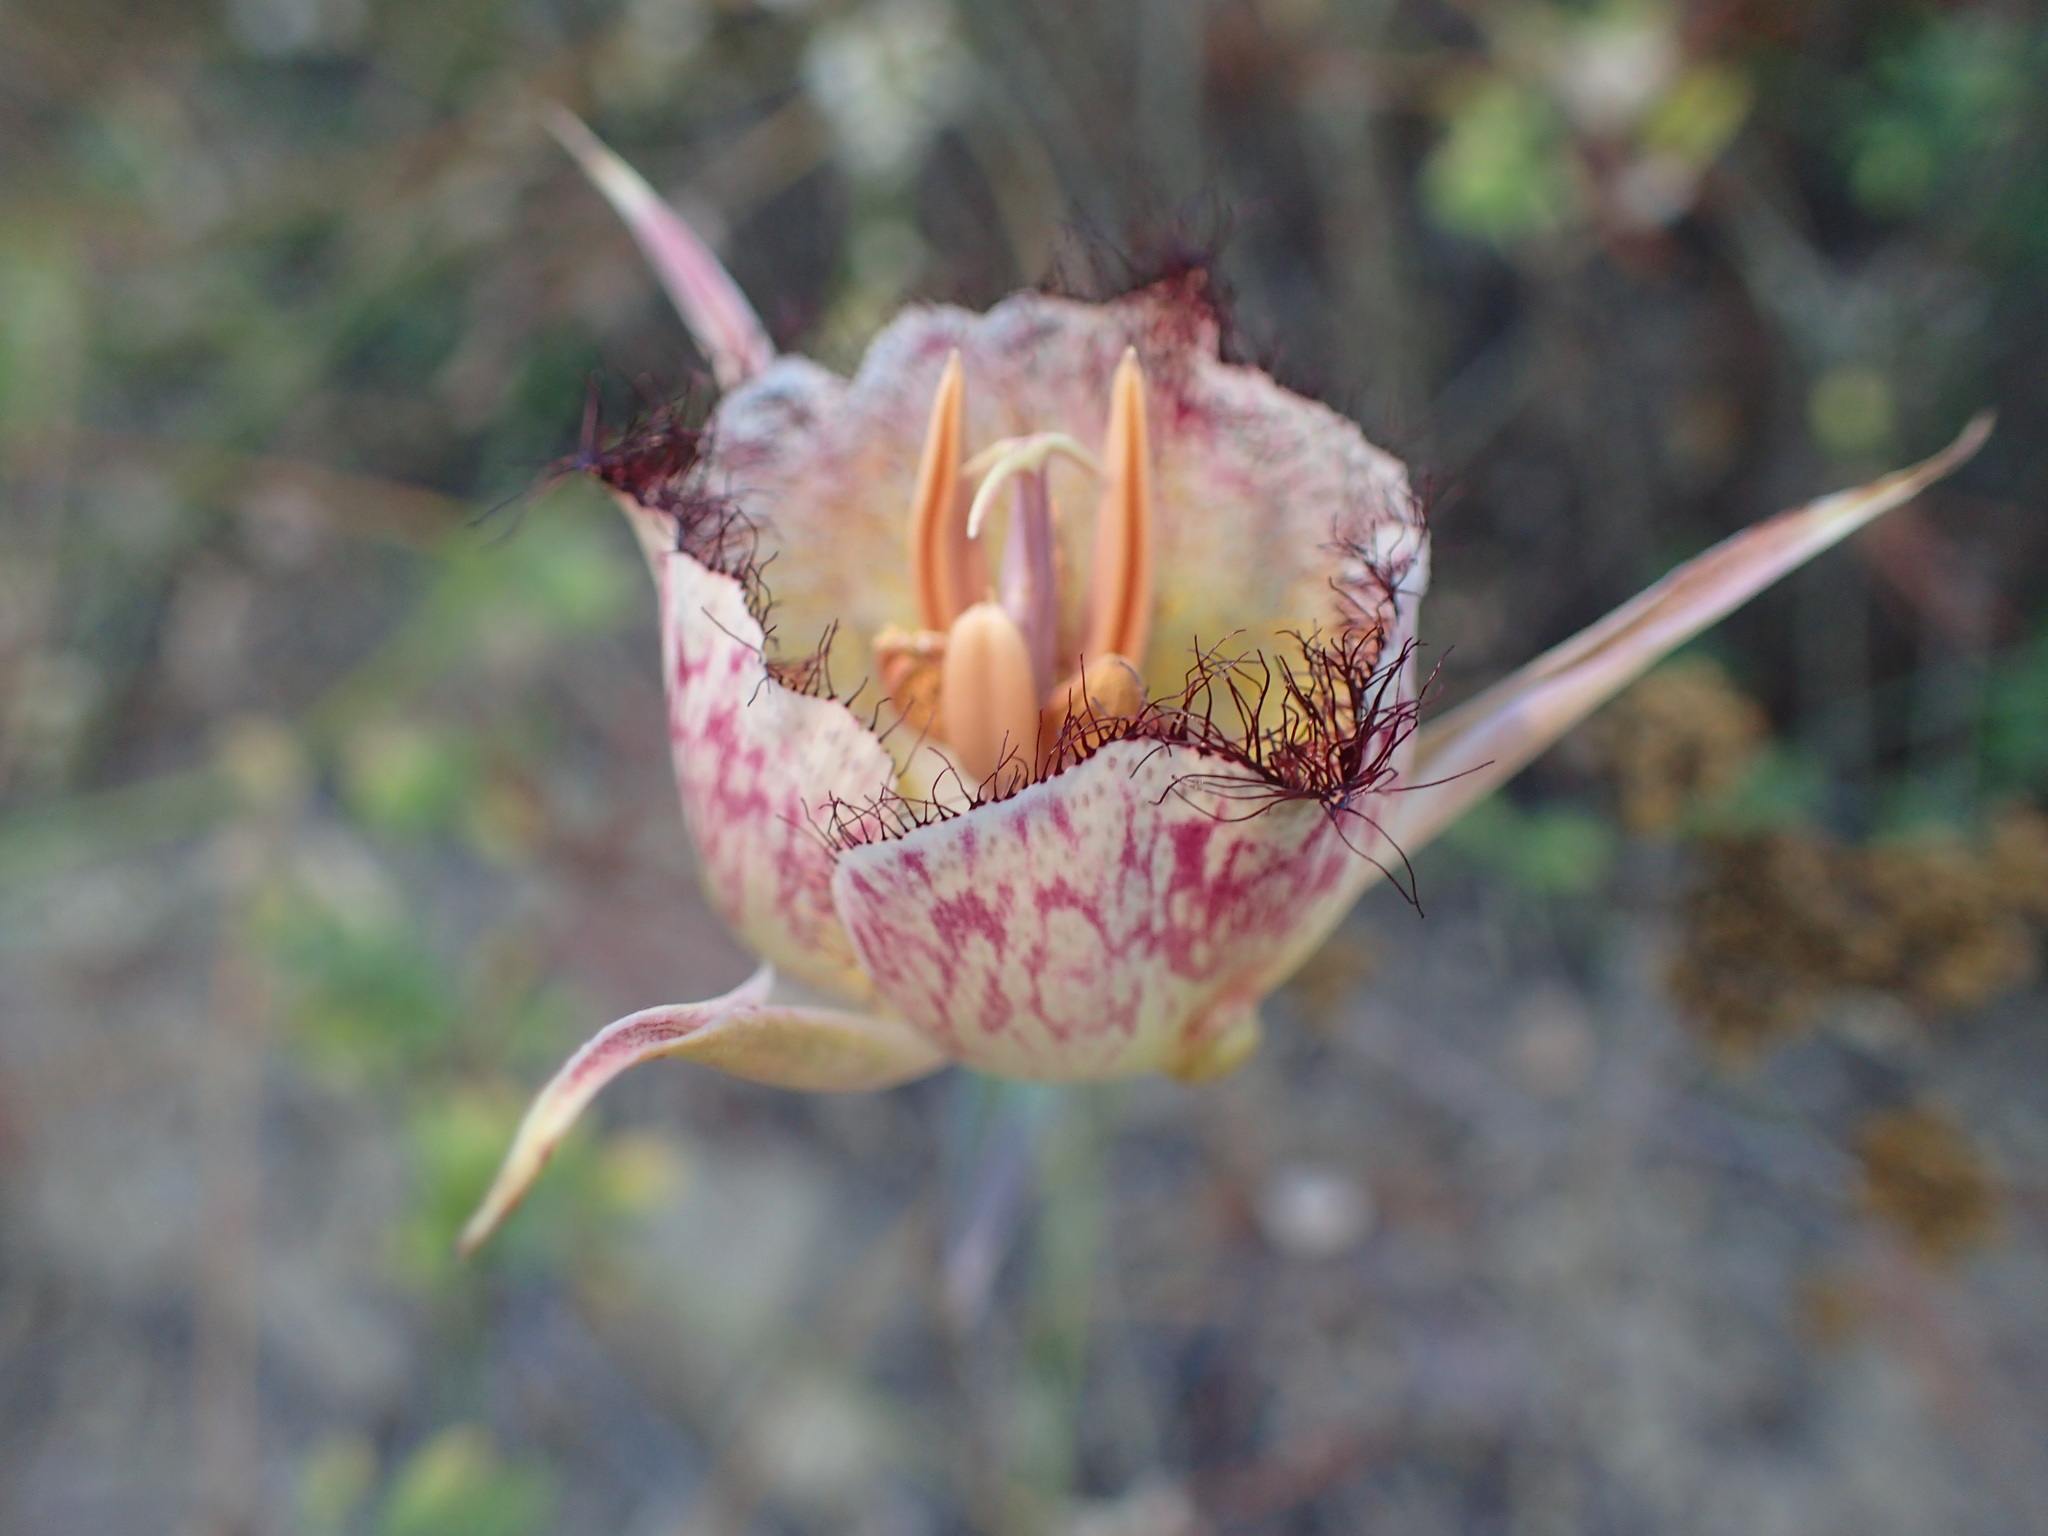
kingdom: Plantae
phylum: Tracheophyta
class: Liliopsida
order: Liliales
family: Liliaceae
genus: Calochortus
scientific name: Calochortus fimbriatus
